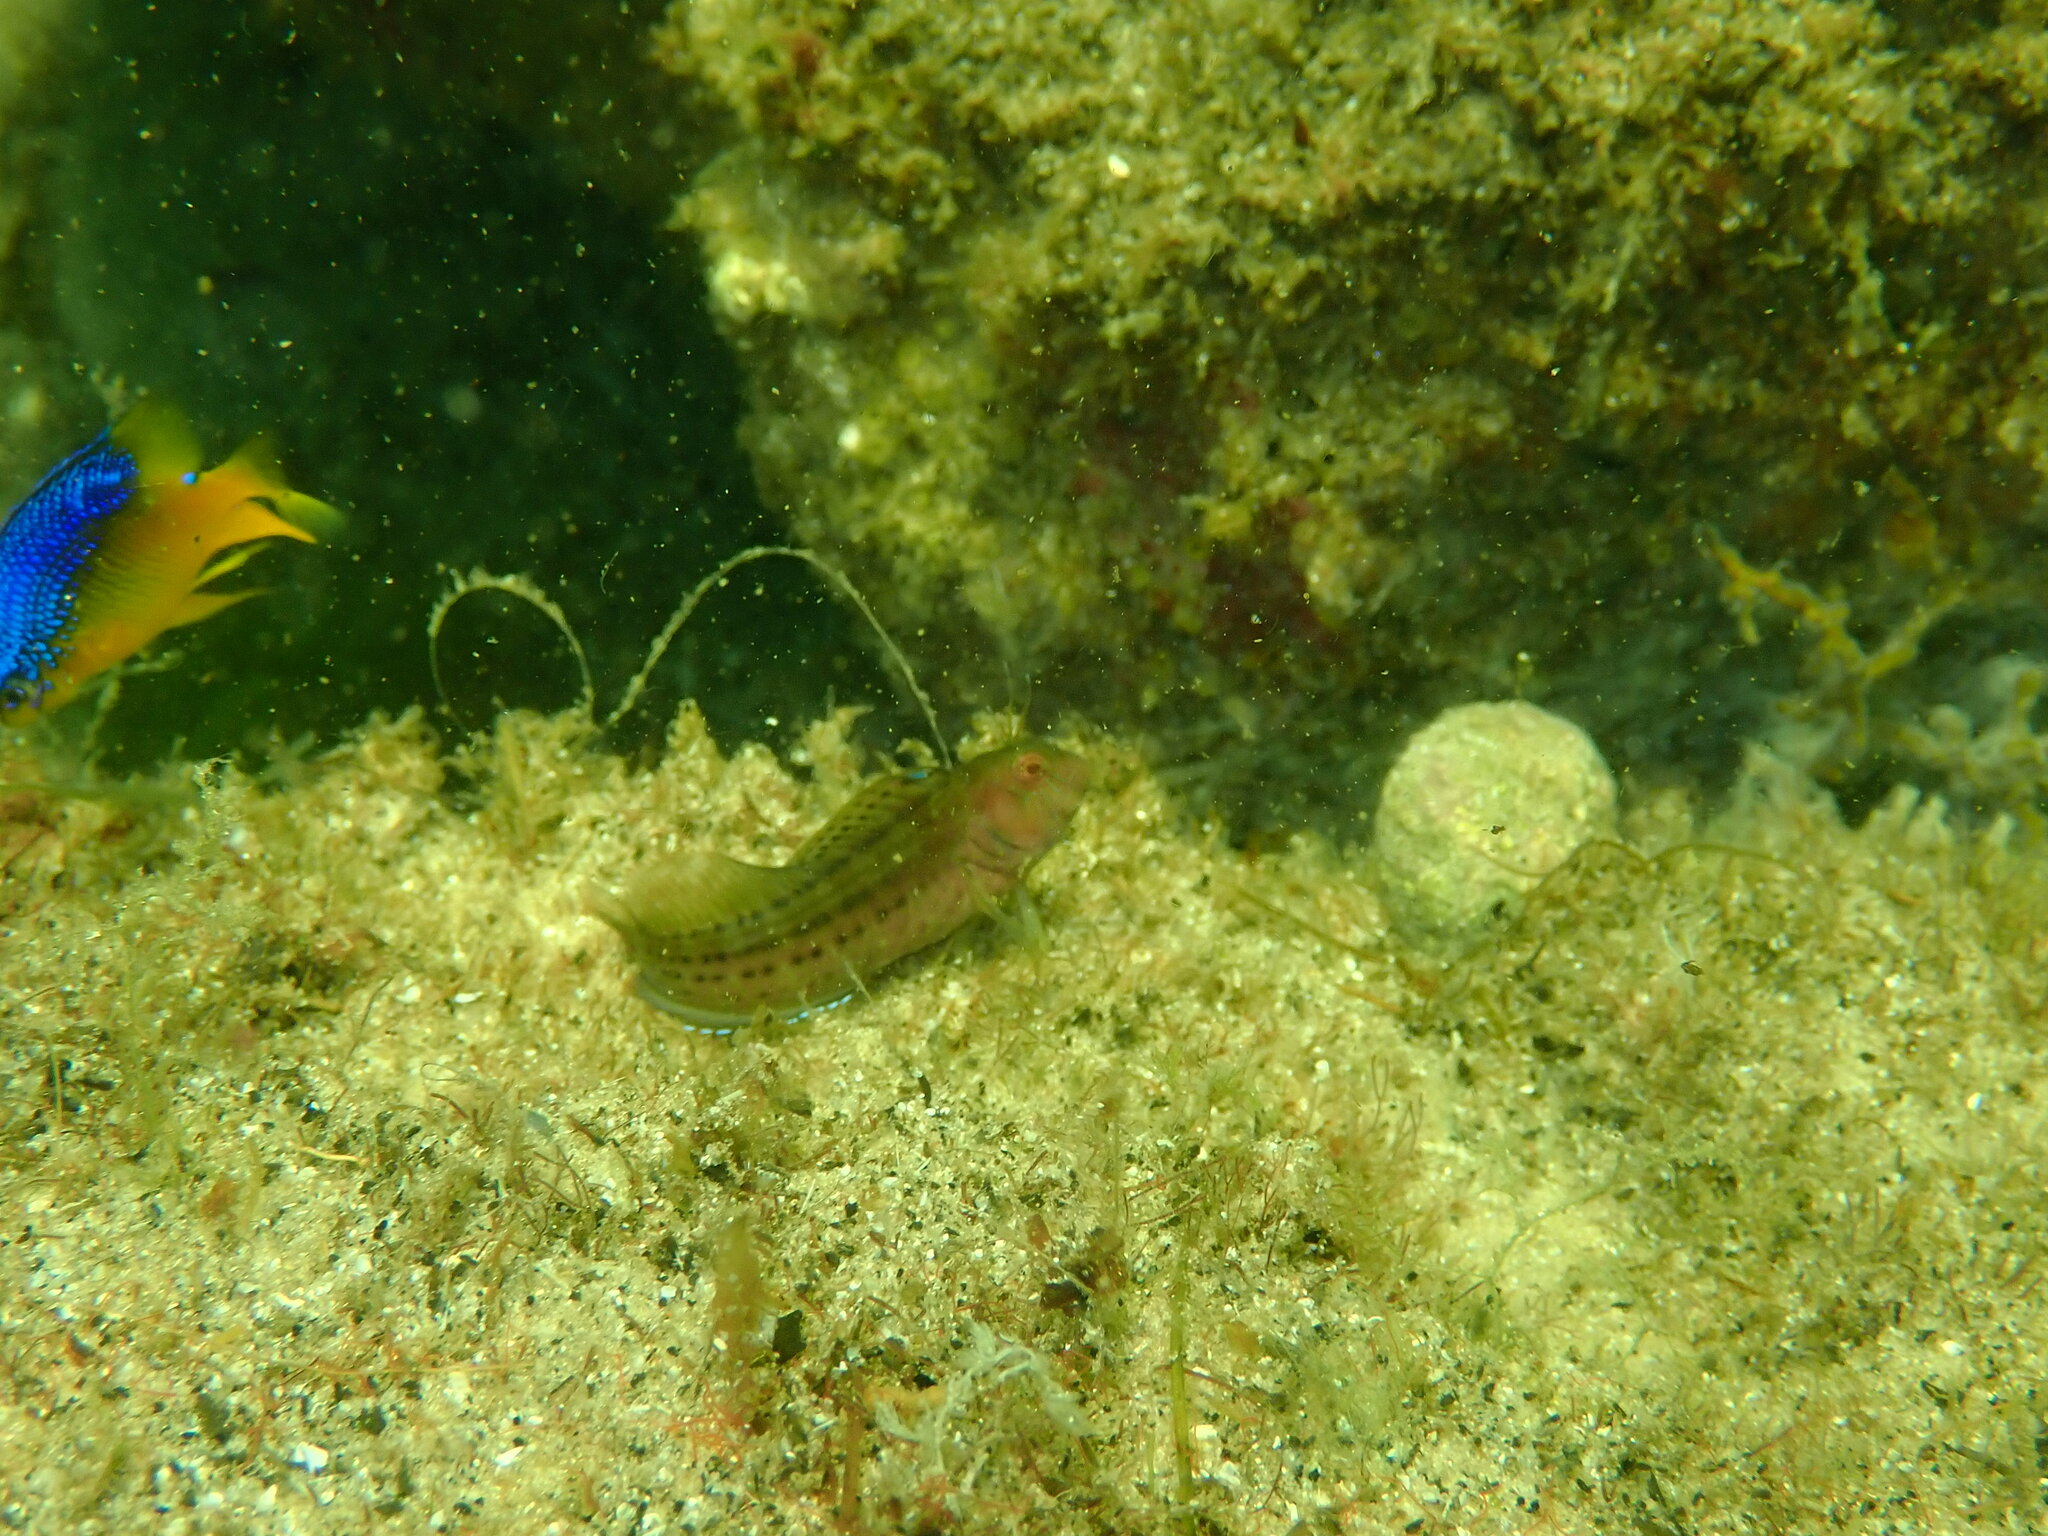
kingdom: Animalia
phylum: Chordata
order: Perciformes
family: Blenniidae
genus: Hypsoblennius
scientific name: Hypsoblennius hentz
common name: Feather blenny
